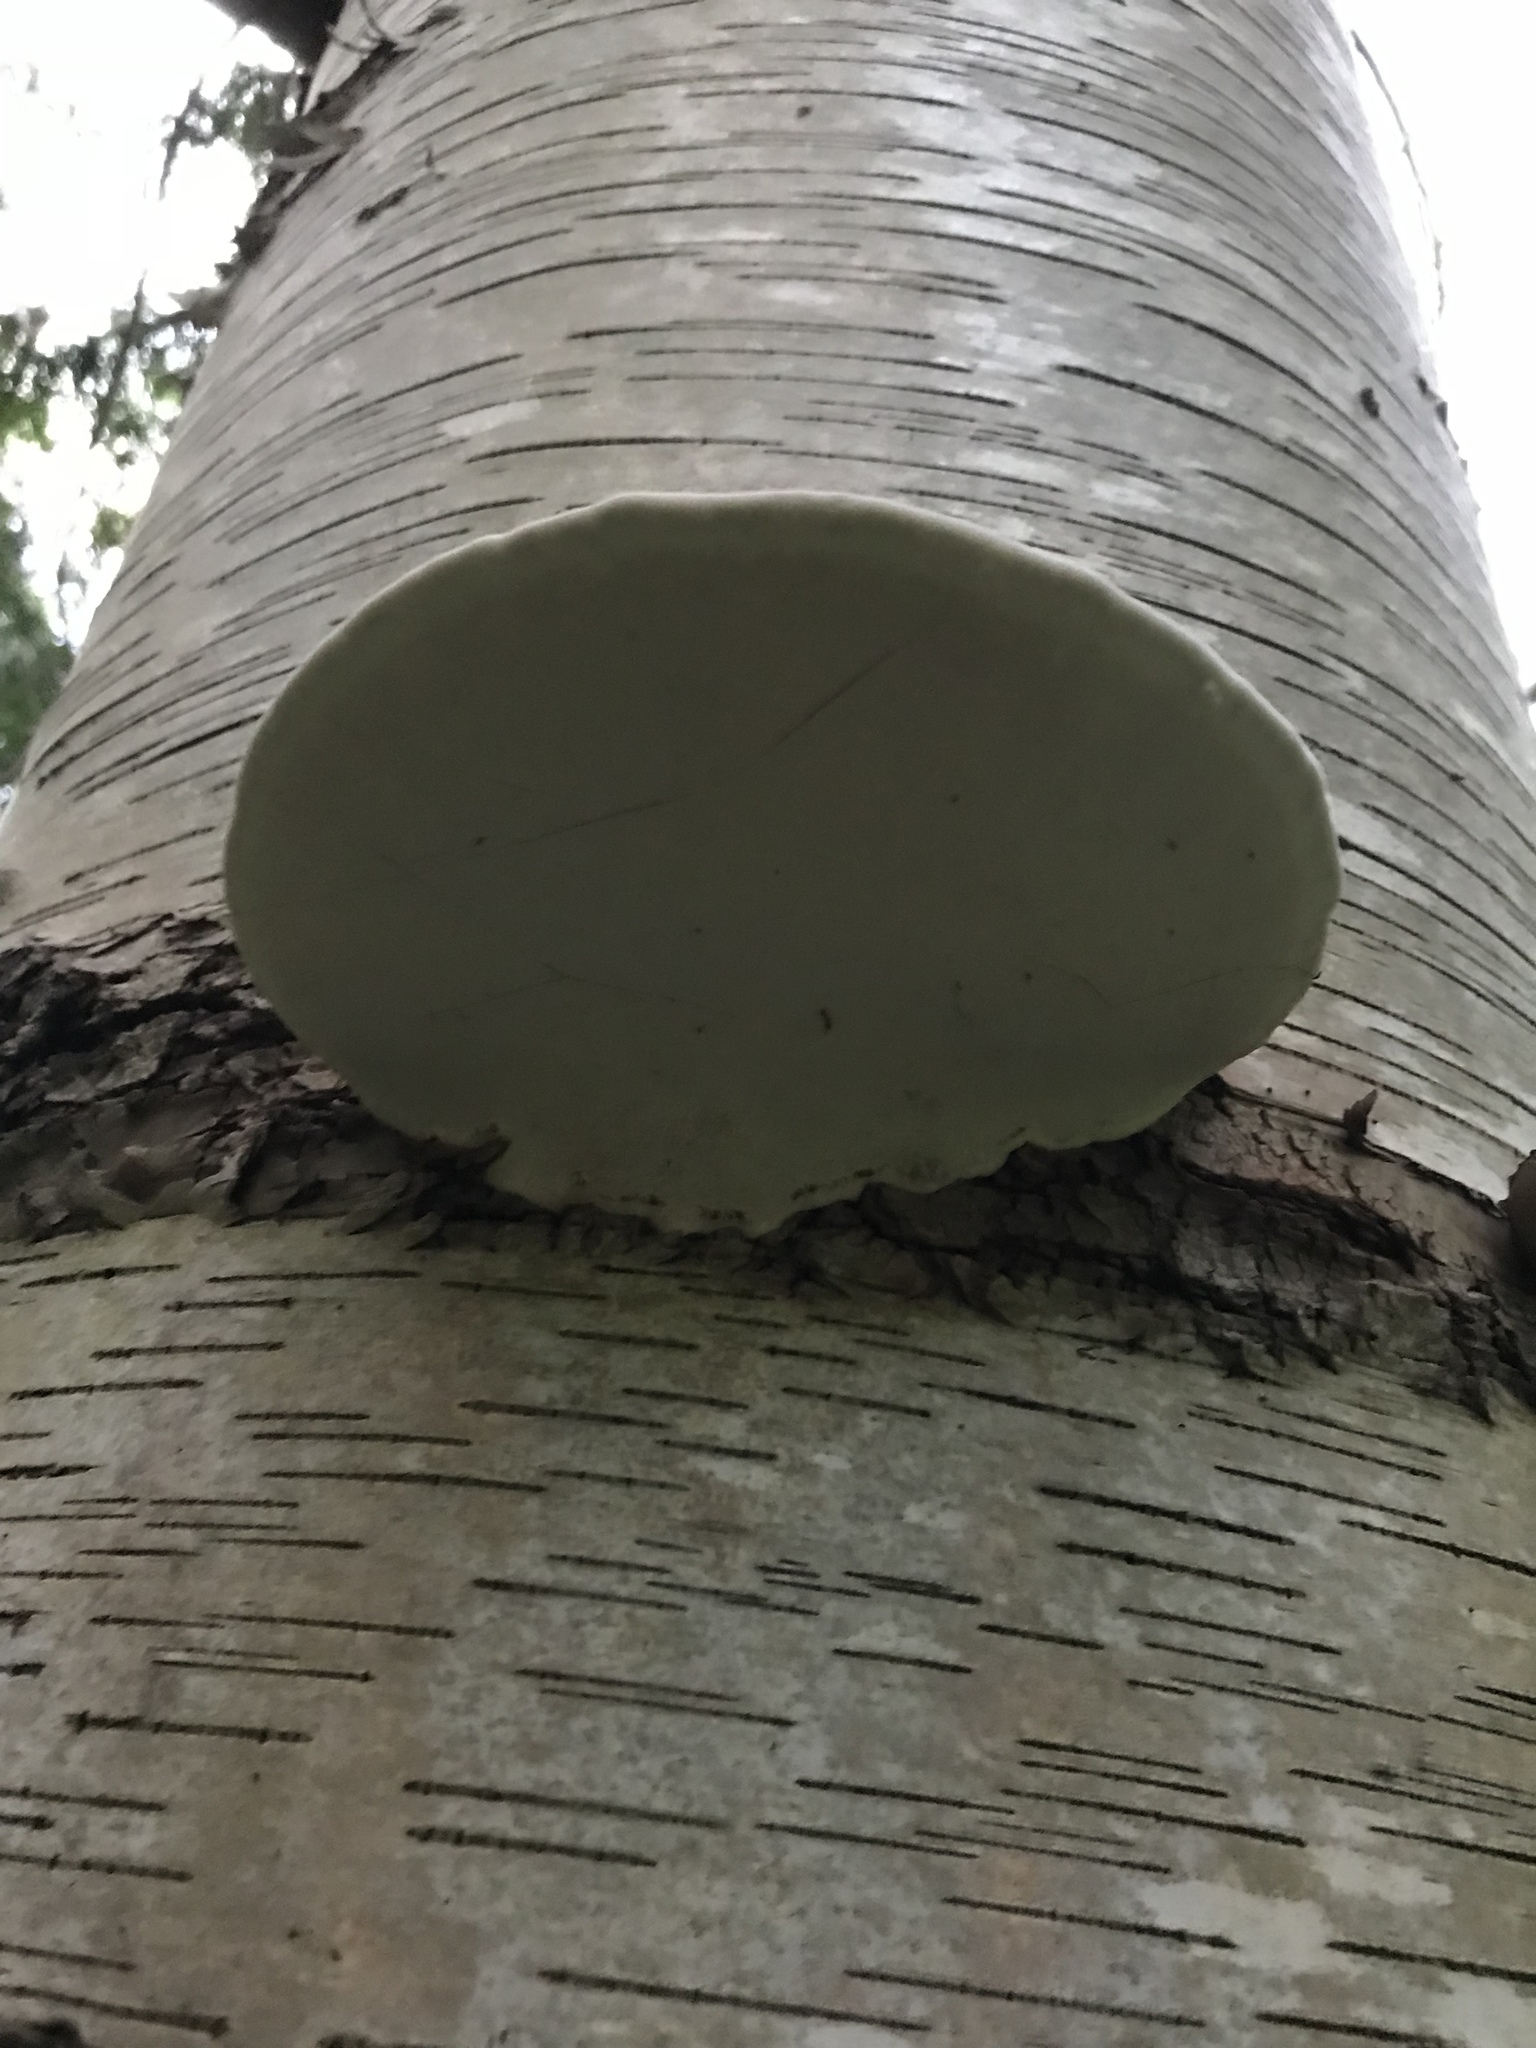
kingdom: Fungi
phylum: Basidiomycota
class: Agaricomycetes
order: Polyporales
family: Polyporaceae
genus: Ganoderma
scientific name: Ganoderma applanatum
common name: Artist's bracket
